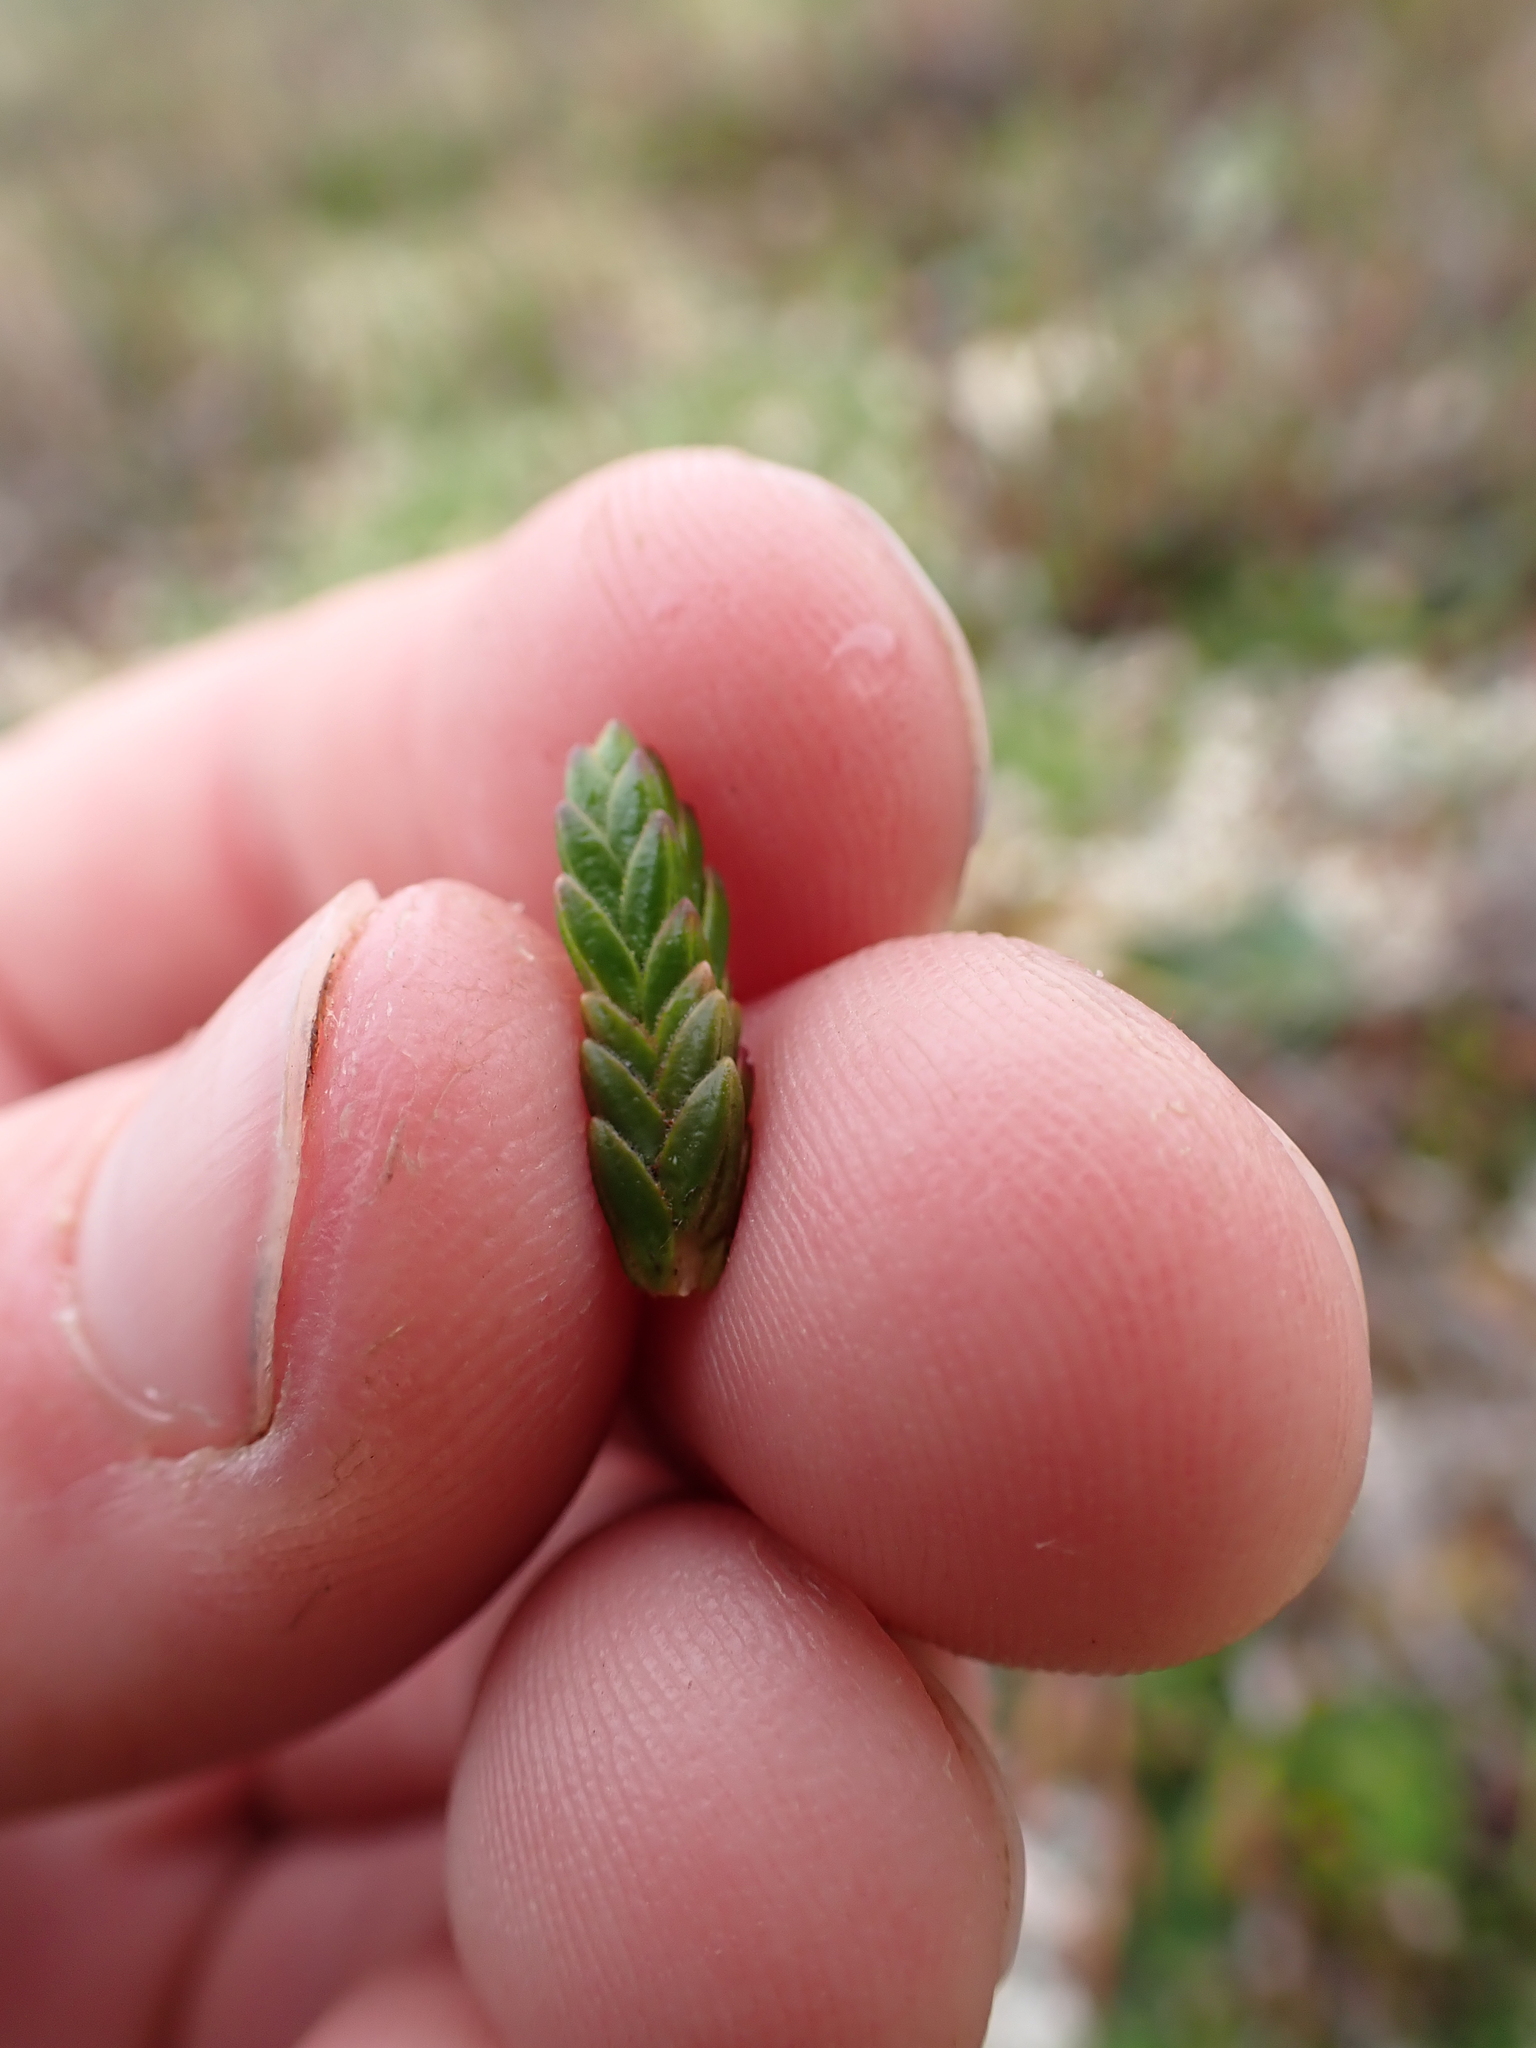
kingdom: Plantae
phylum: Tracheophyta
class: Magnoliopsida
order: Ericales
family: Ericaceae
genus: Cassiope
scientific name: Cassiope tetragona
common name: Arctic bell heather
